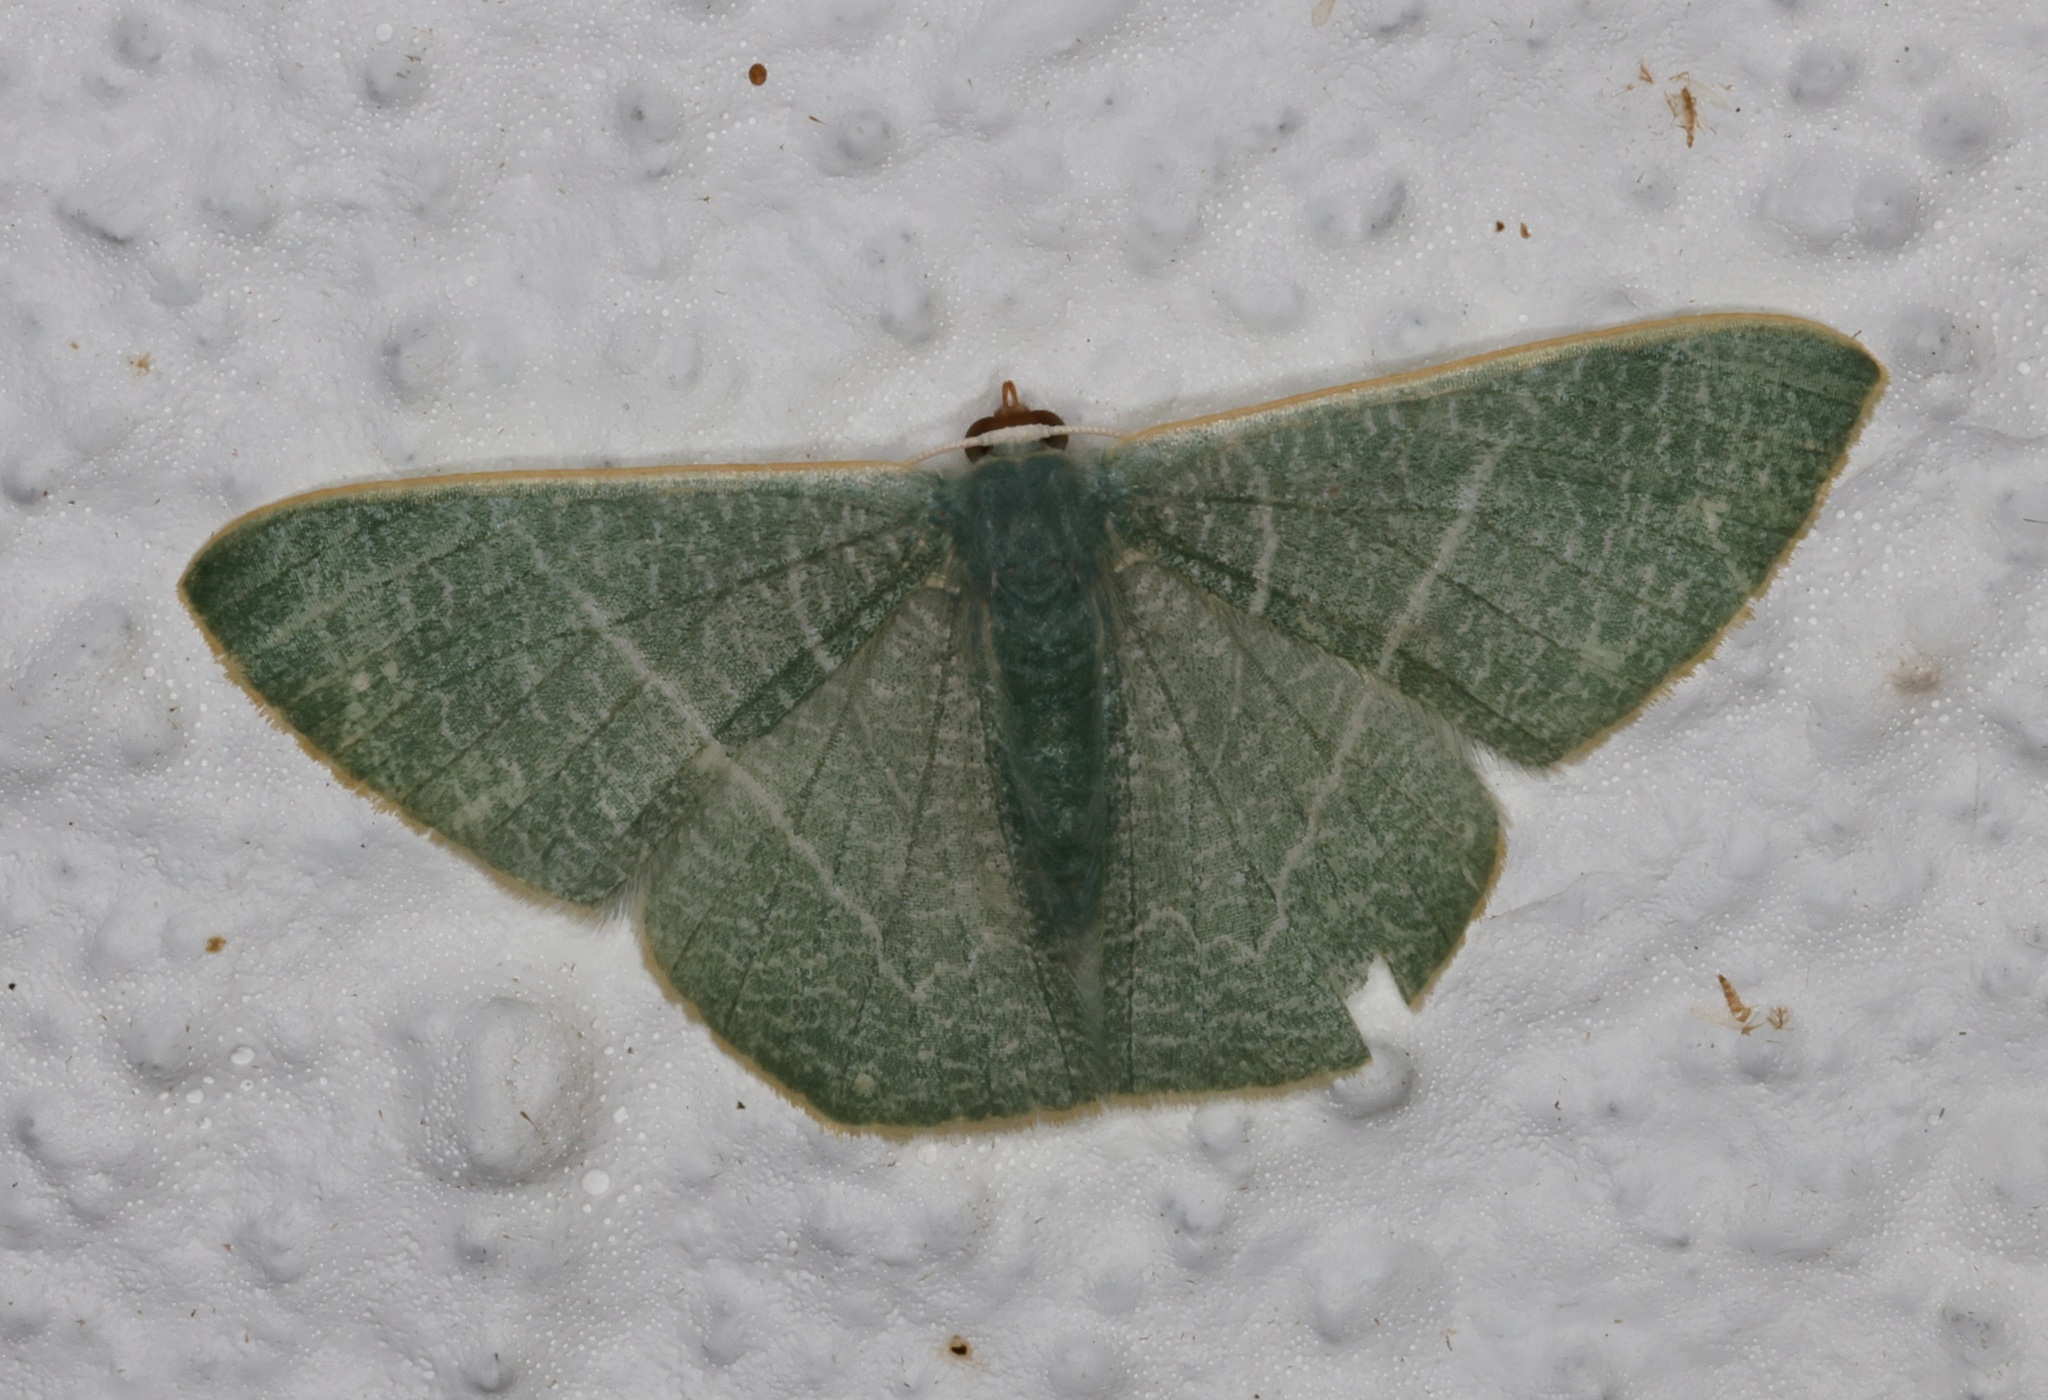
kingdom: Animalia
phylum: Arthropoda
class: Insecta
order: Lepidoptera
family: Geometridae
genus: Pelagodes
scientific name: Pelagodes antiquadraria
